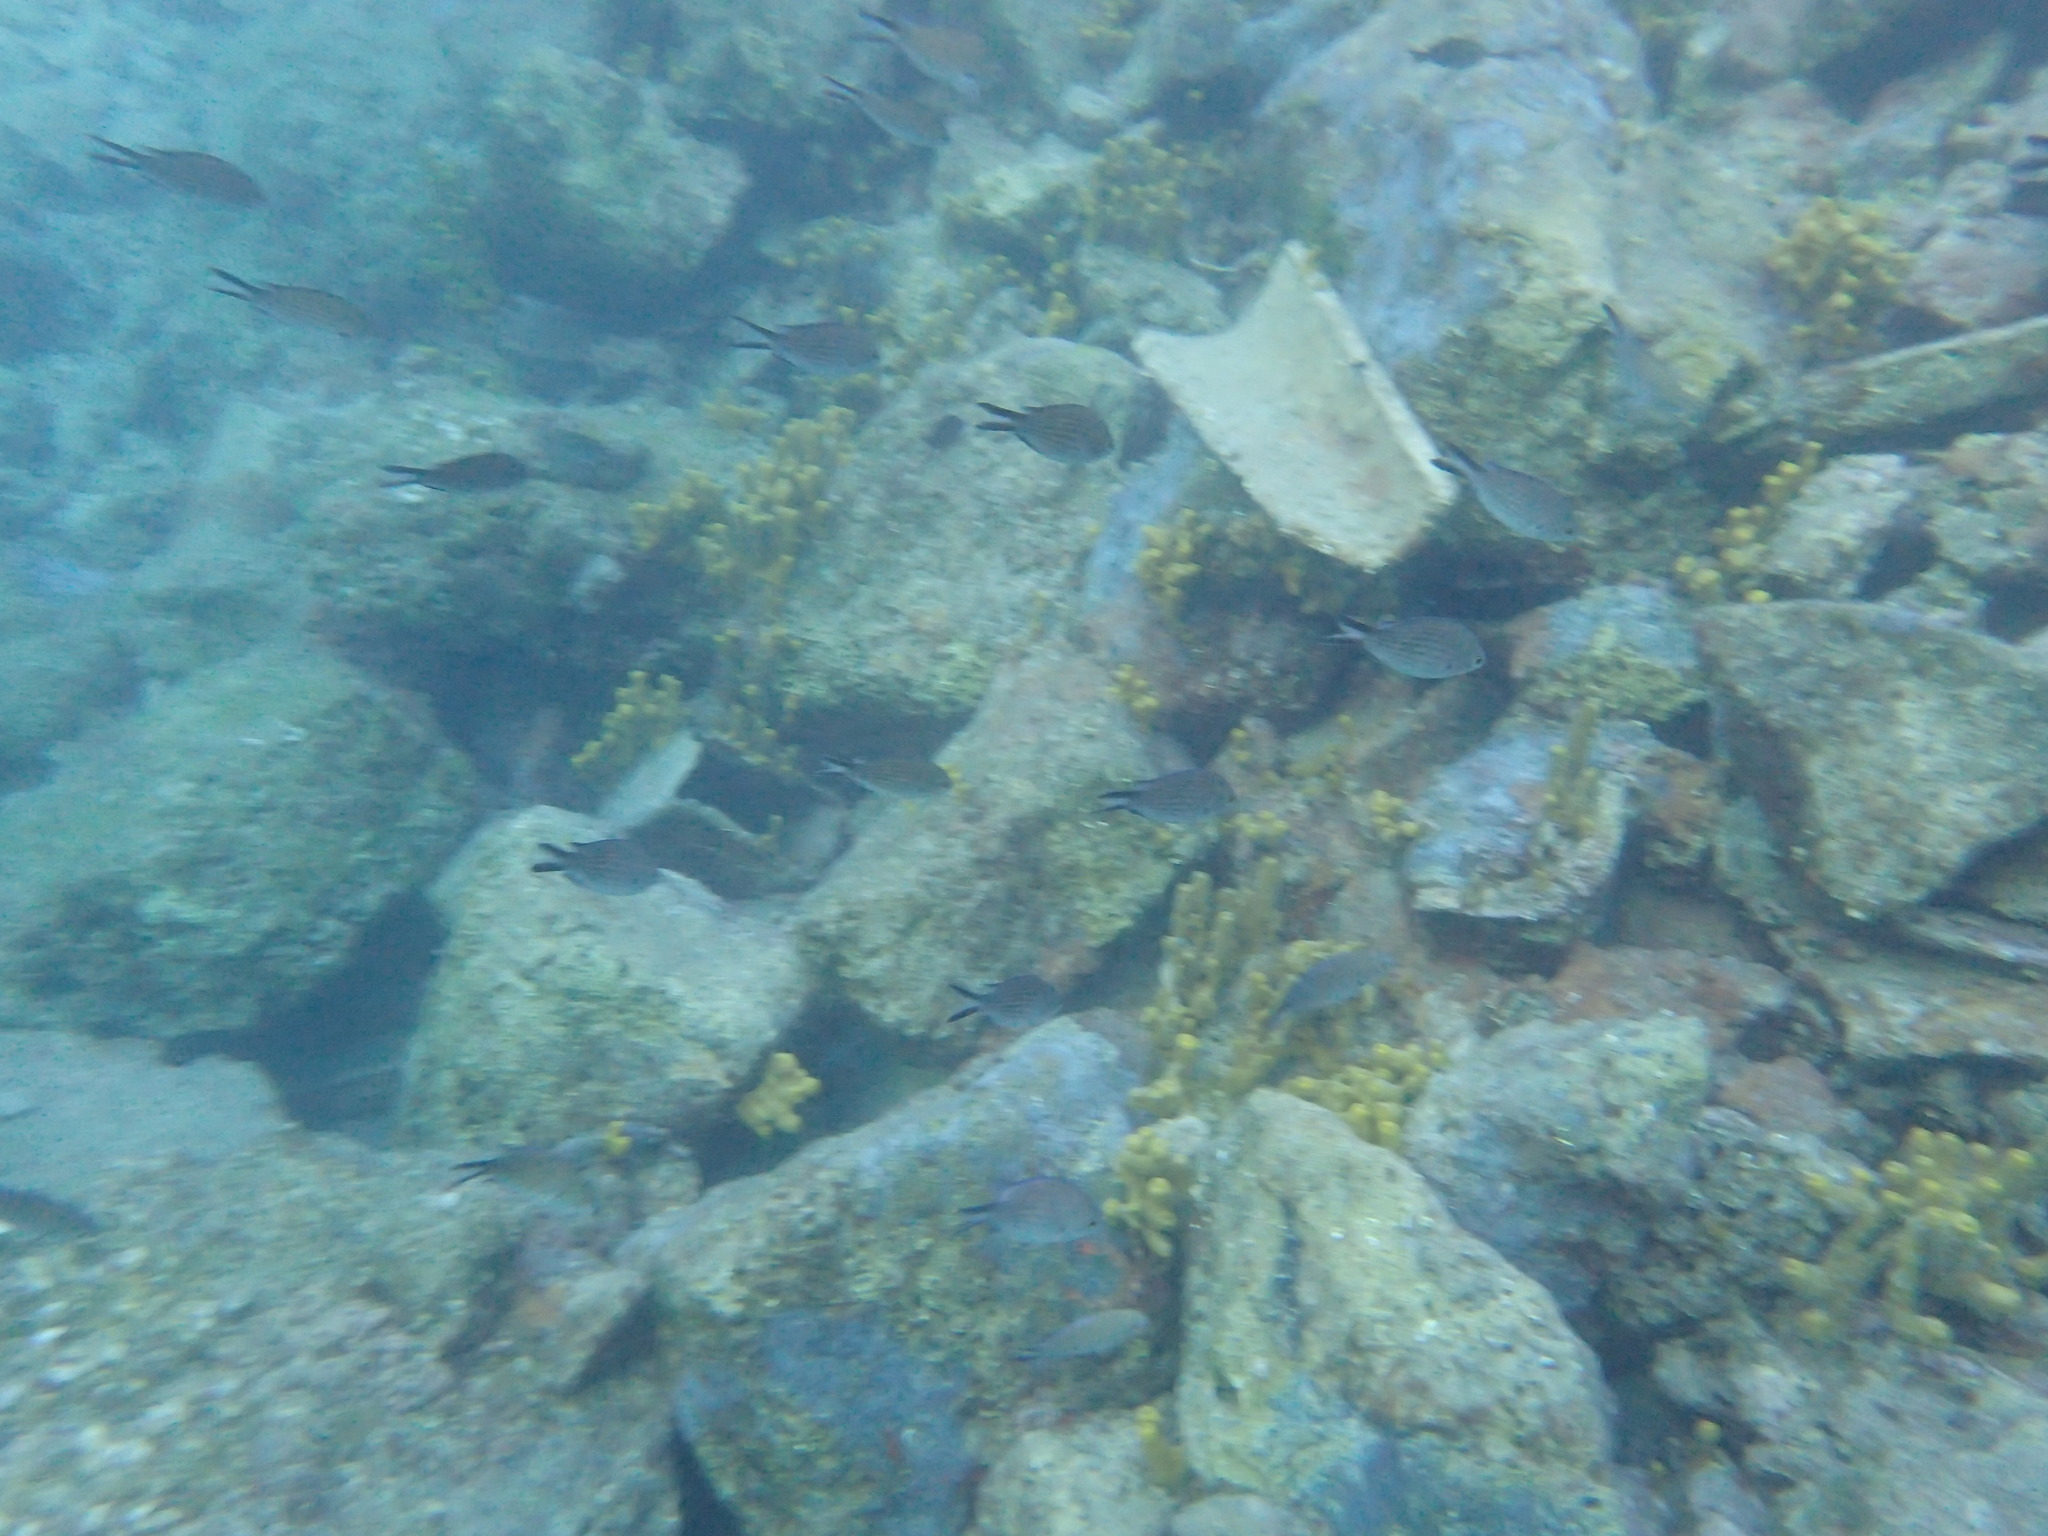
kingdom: Animalia
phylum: Chordata
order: Perciformes
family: Pomacentridae
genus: Chromis
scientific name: Chromis chromis
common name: Damselfish
